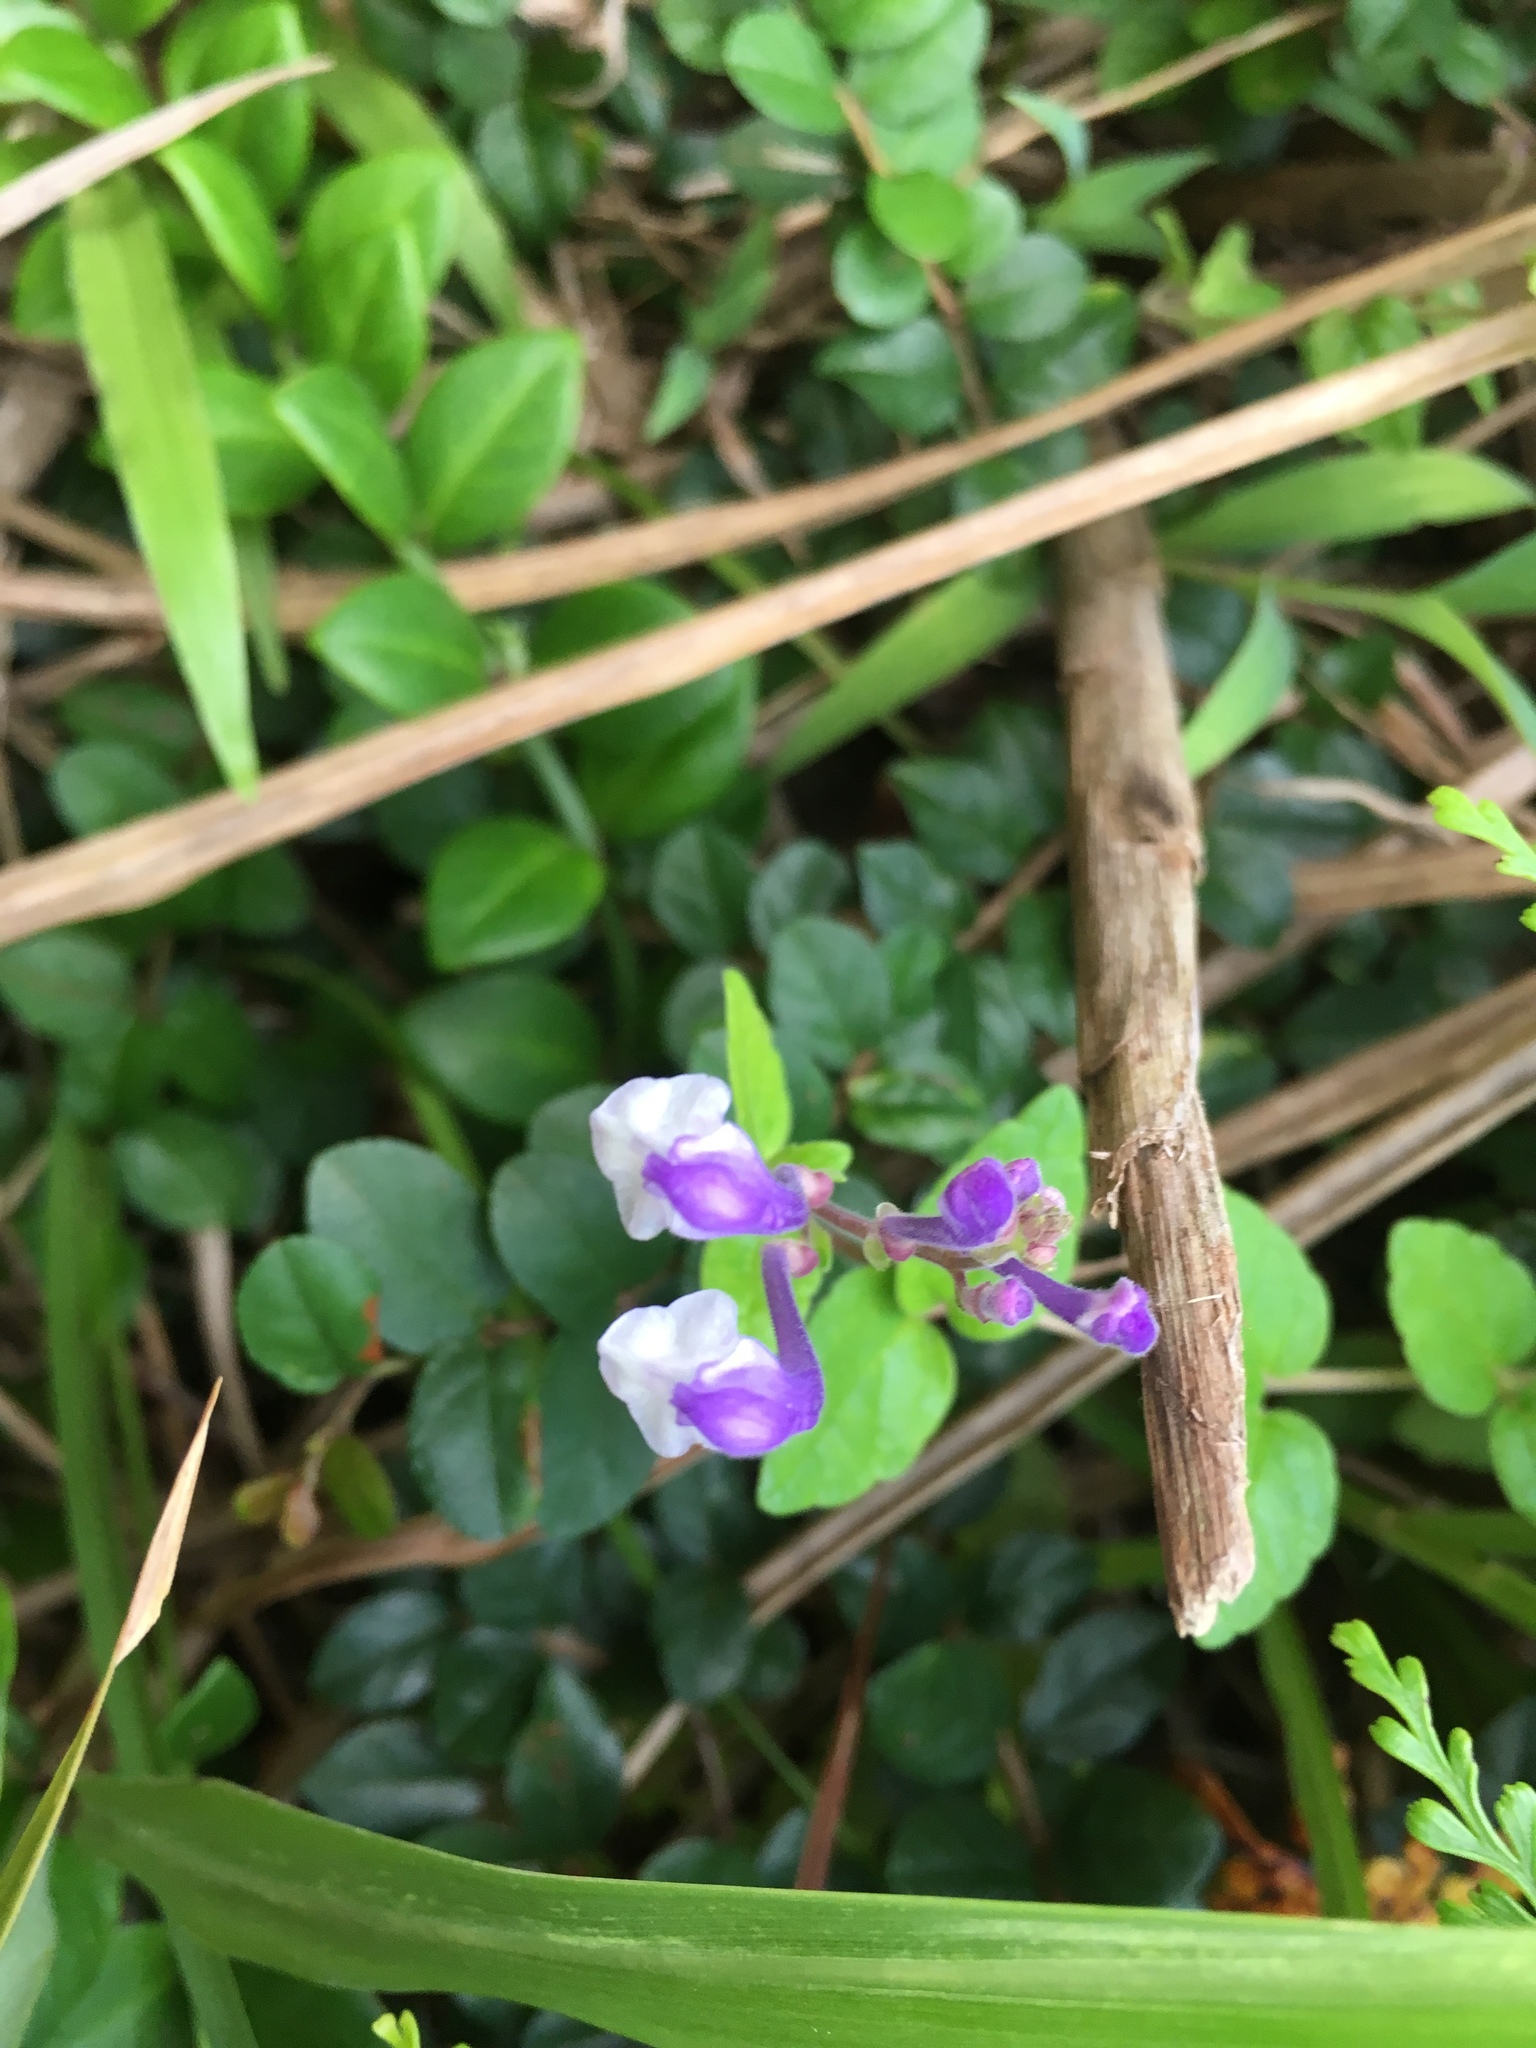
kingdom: Plantae
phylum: Tracheophyta
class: Magnoliopsida
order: Lamiales
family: Lamiaceae
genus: Scutellaria
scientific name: Scutellaria indica
